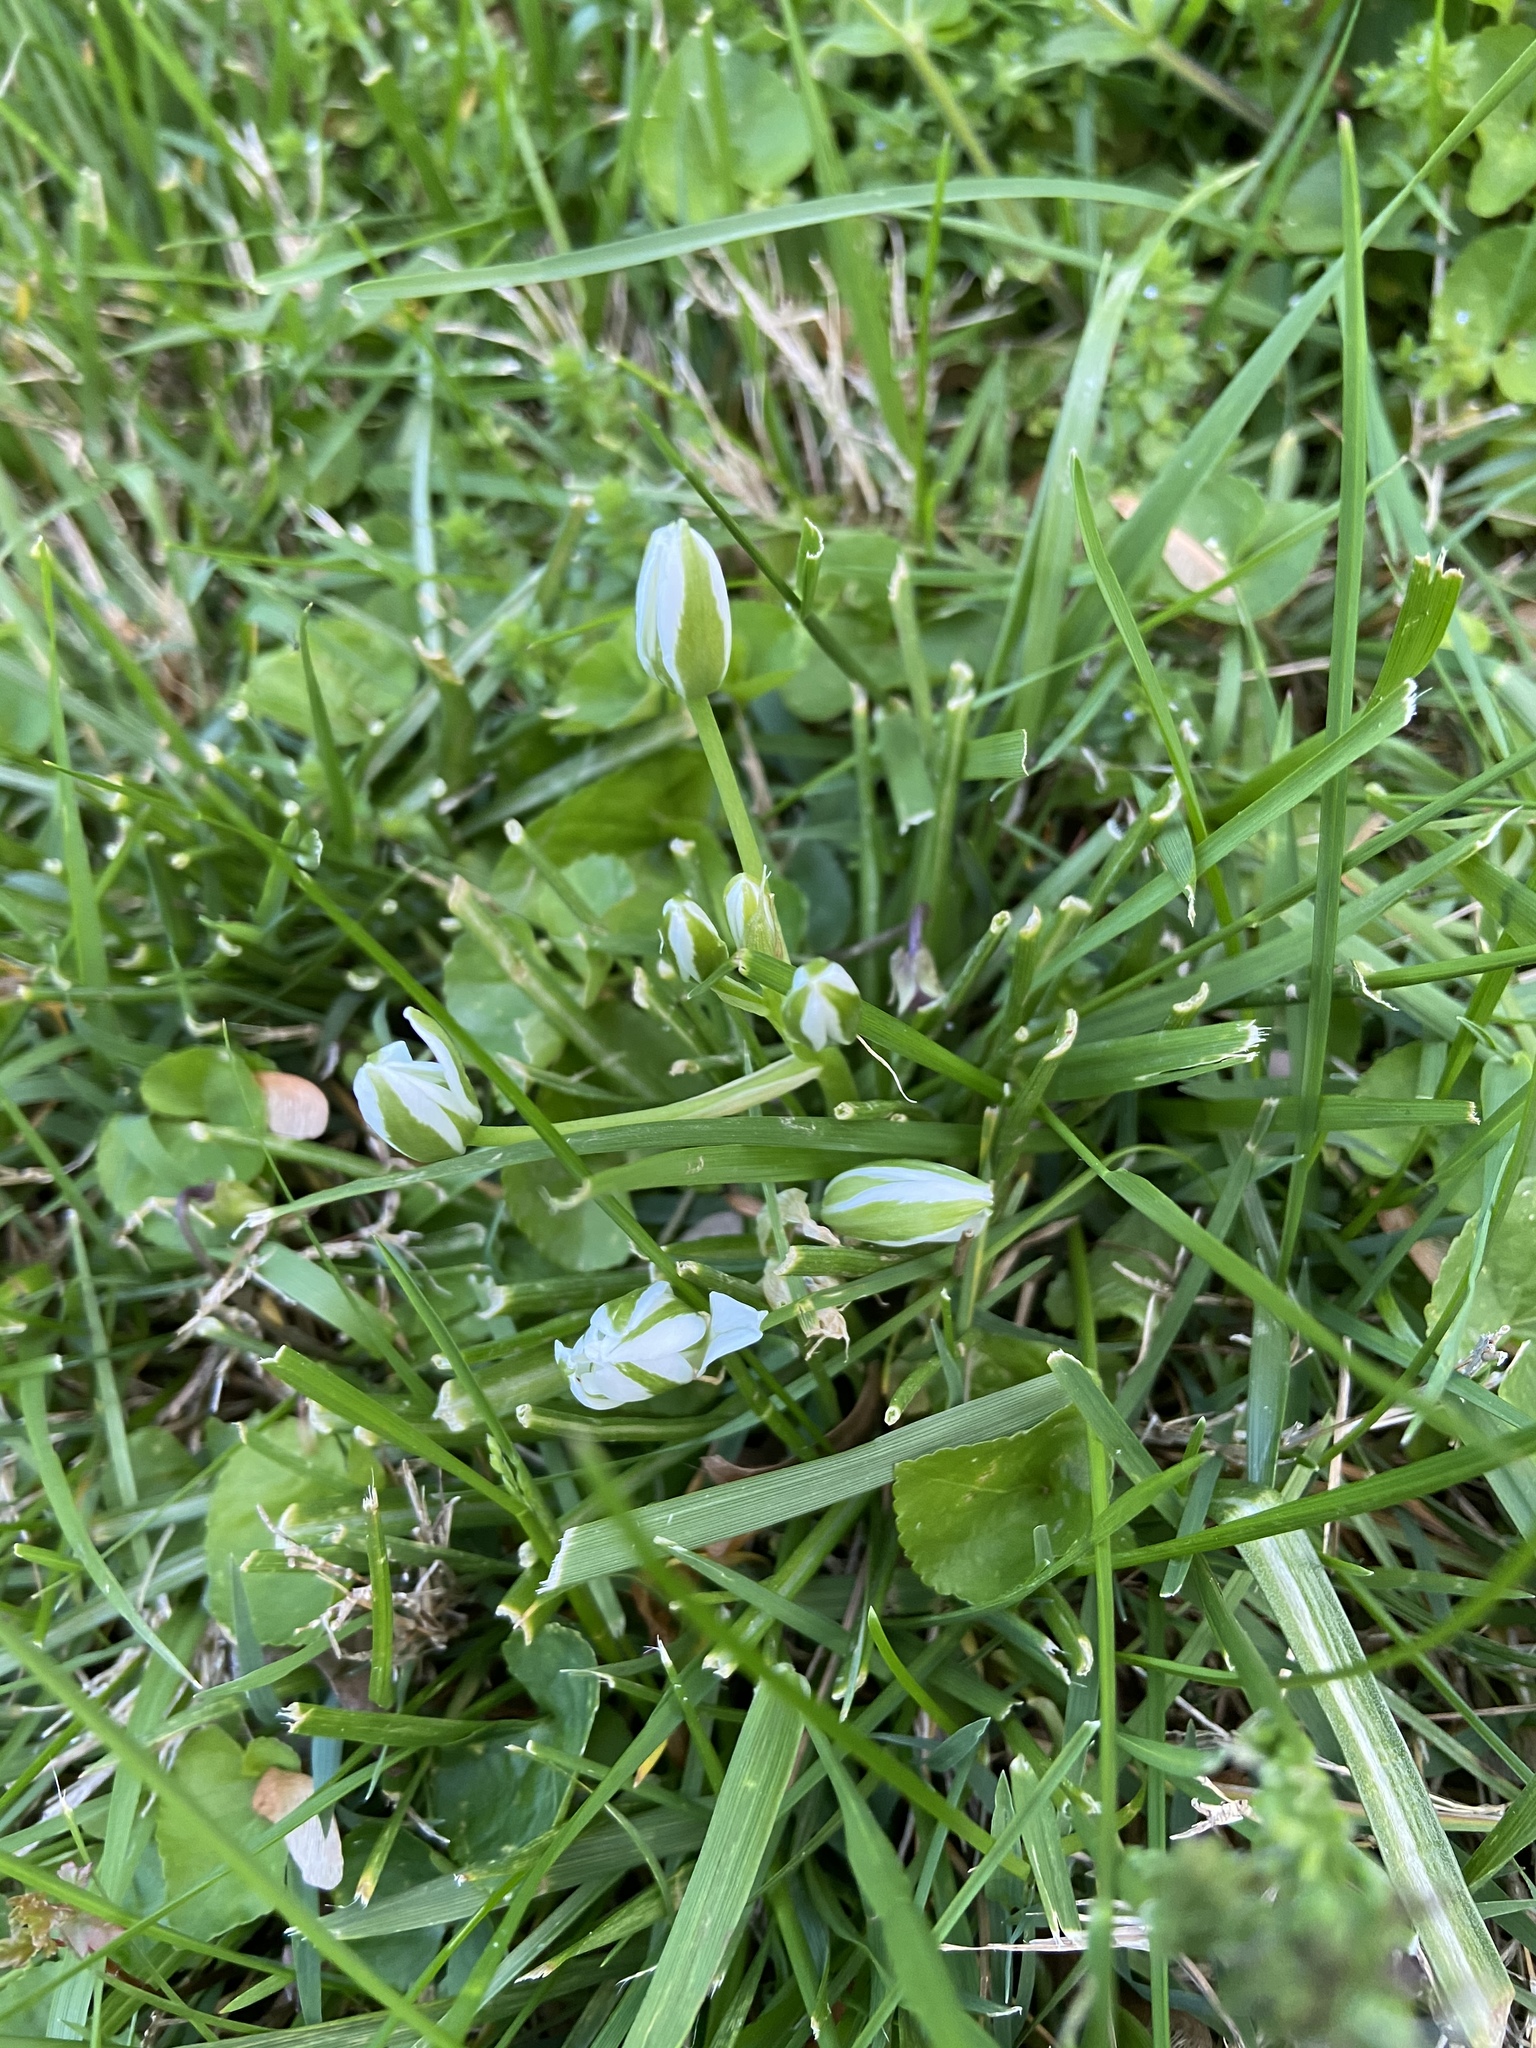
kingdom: Plantae
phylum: Tracheophyta
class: Liliopsida
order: Asparagales
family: Asparagaceae
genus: Ornithogalum
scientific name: Ornithogalum umbellatum
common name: Garden star-of-bethlehem
